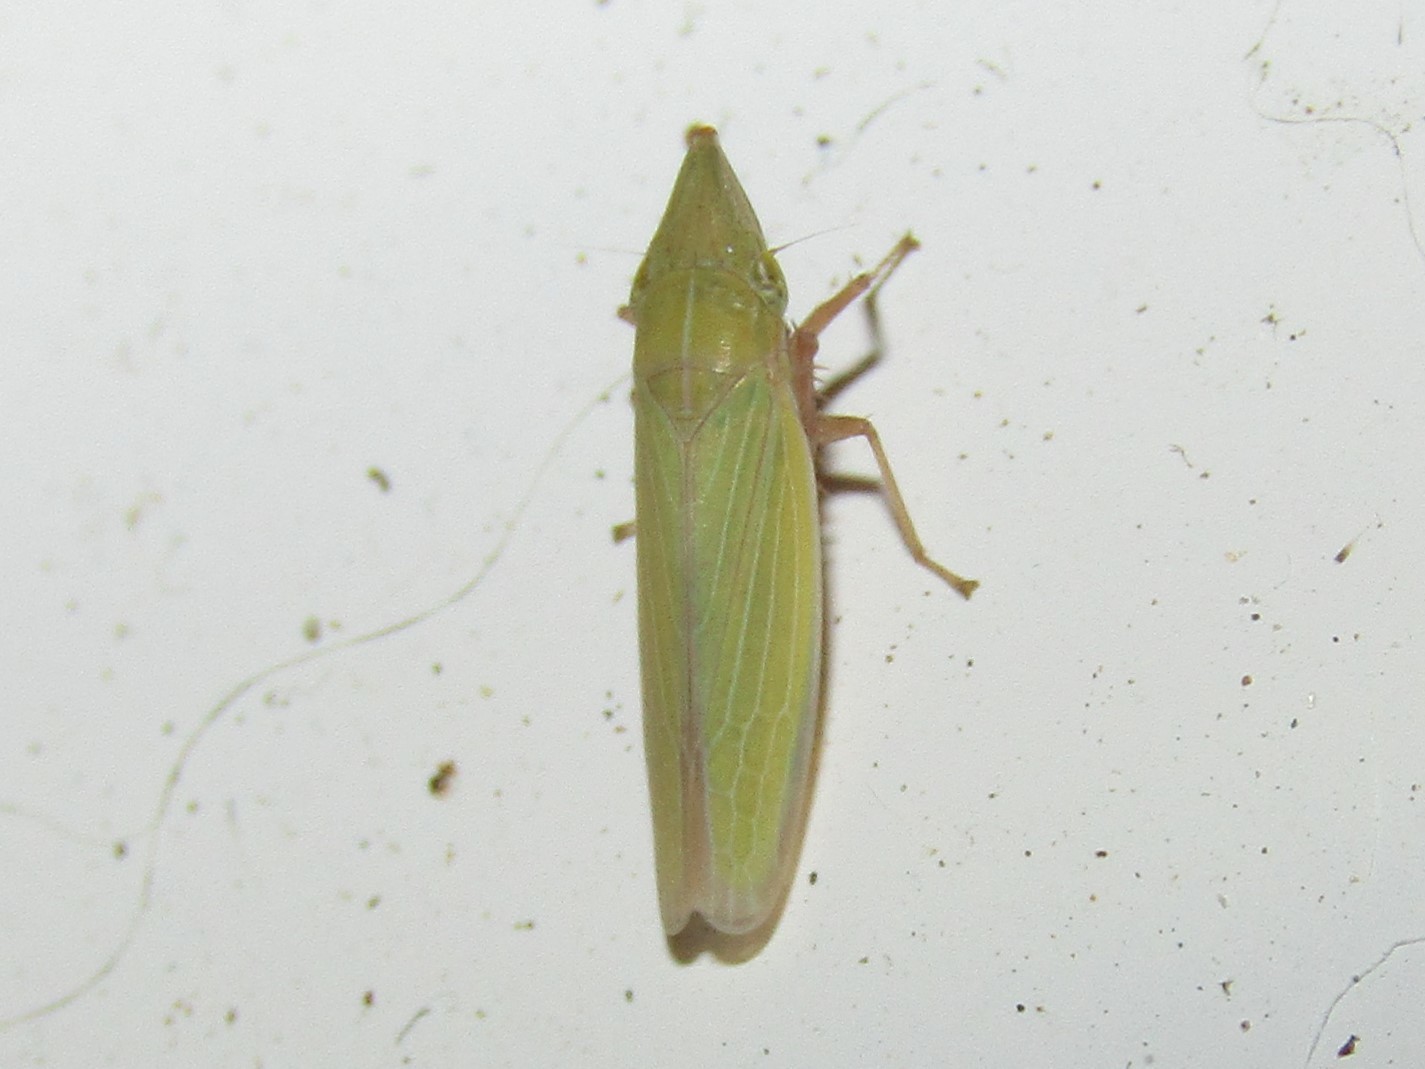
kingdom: Animalia
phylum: Arthropoda
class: Insecta
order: Hemiptera
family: Cicadellidae
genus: Draeculacephala
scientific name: Draeculacephala antica
